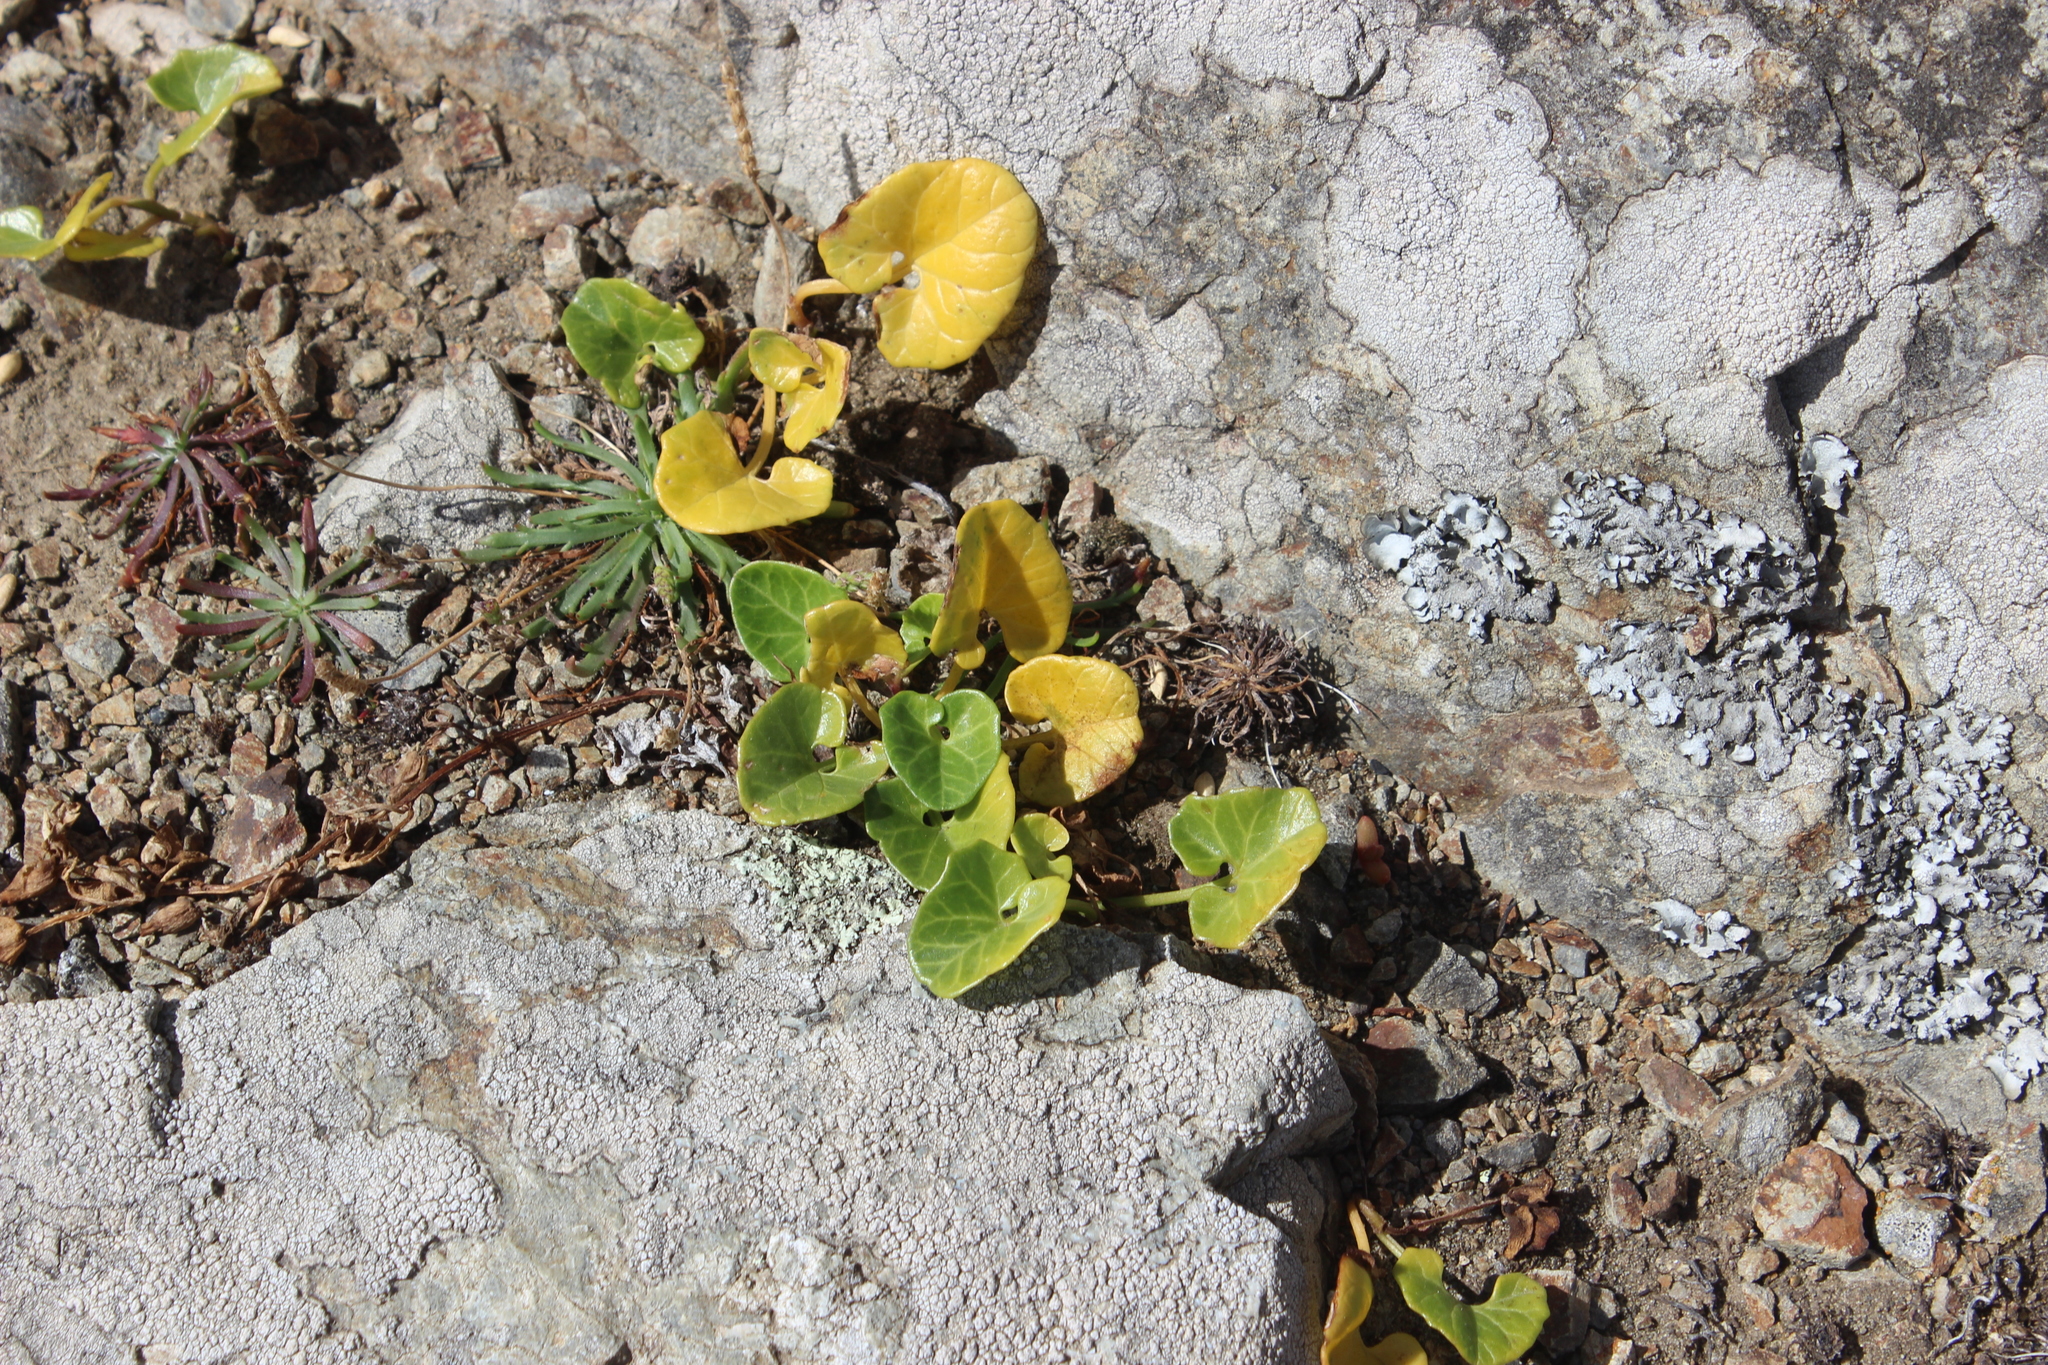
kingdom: Plantae
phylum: Tracheophyta
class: Magnoliopsida
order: Solanales
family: Convolvulaceae
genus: Calystegia
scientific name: Calystegia soldanella
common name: Sea bindweed
